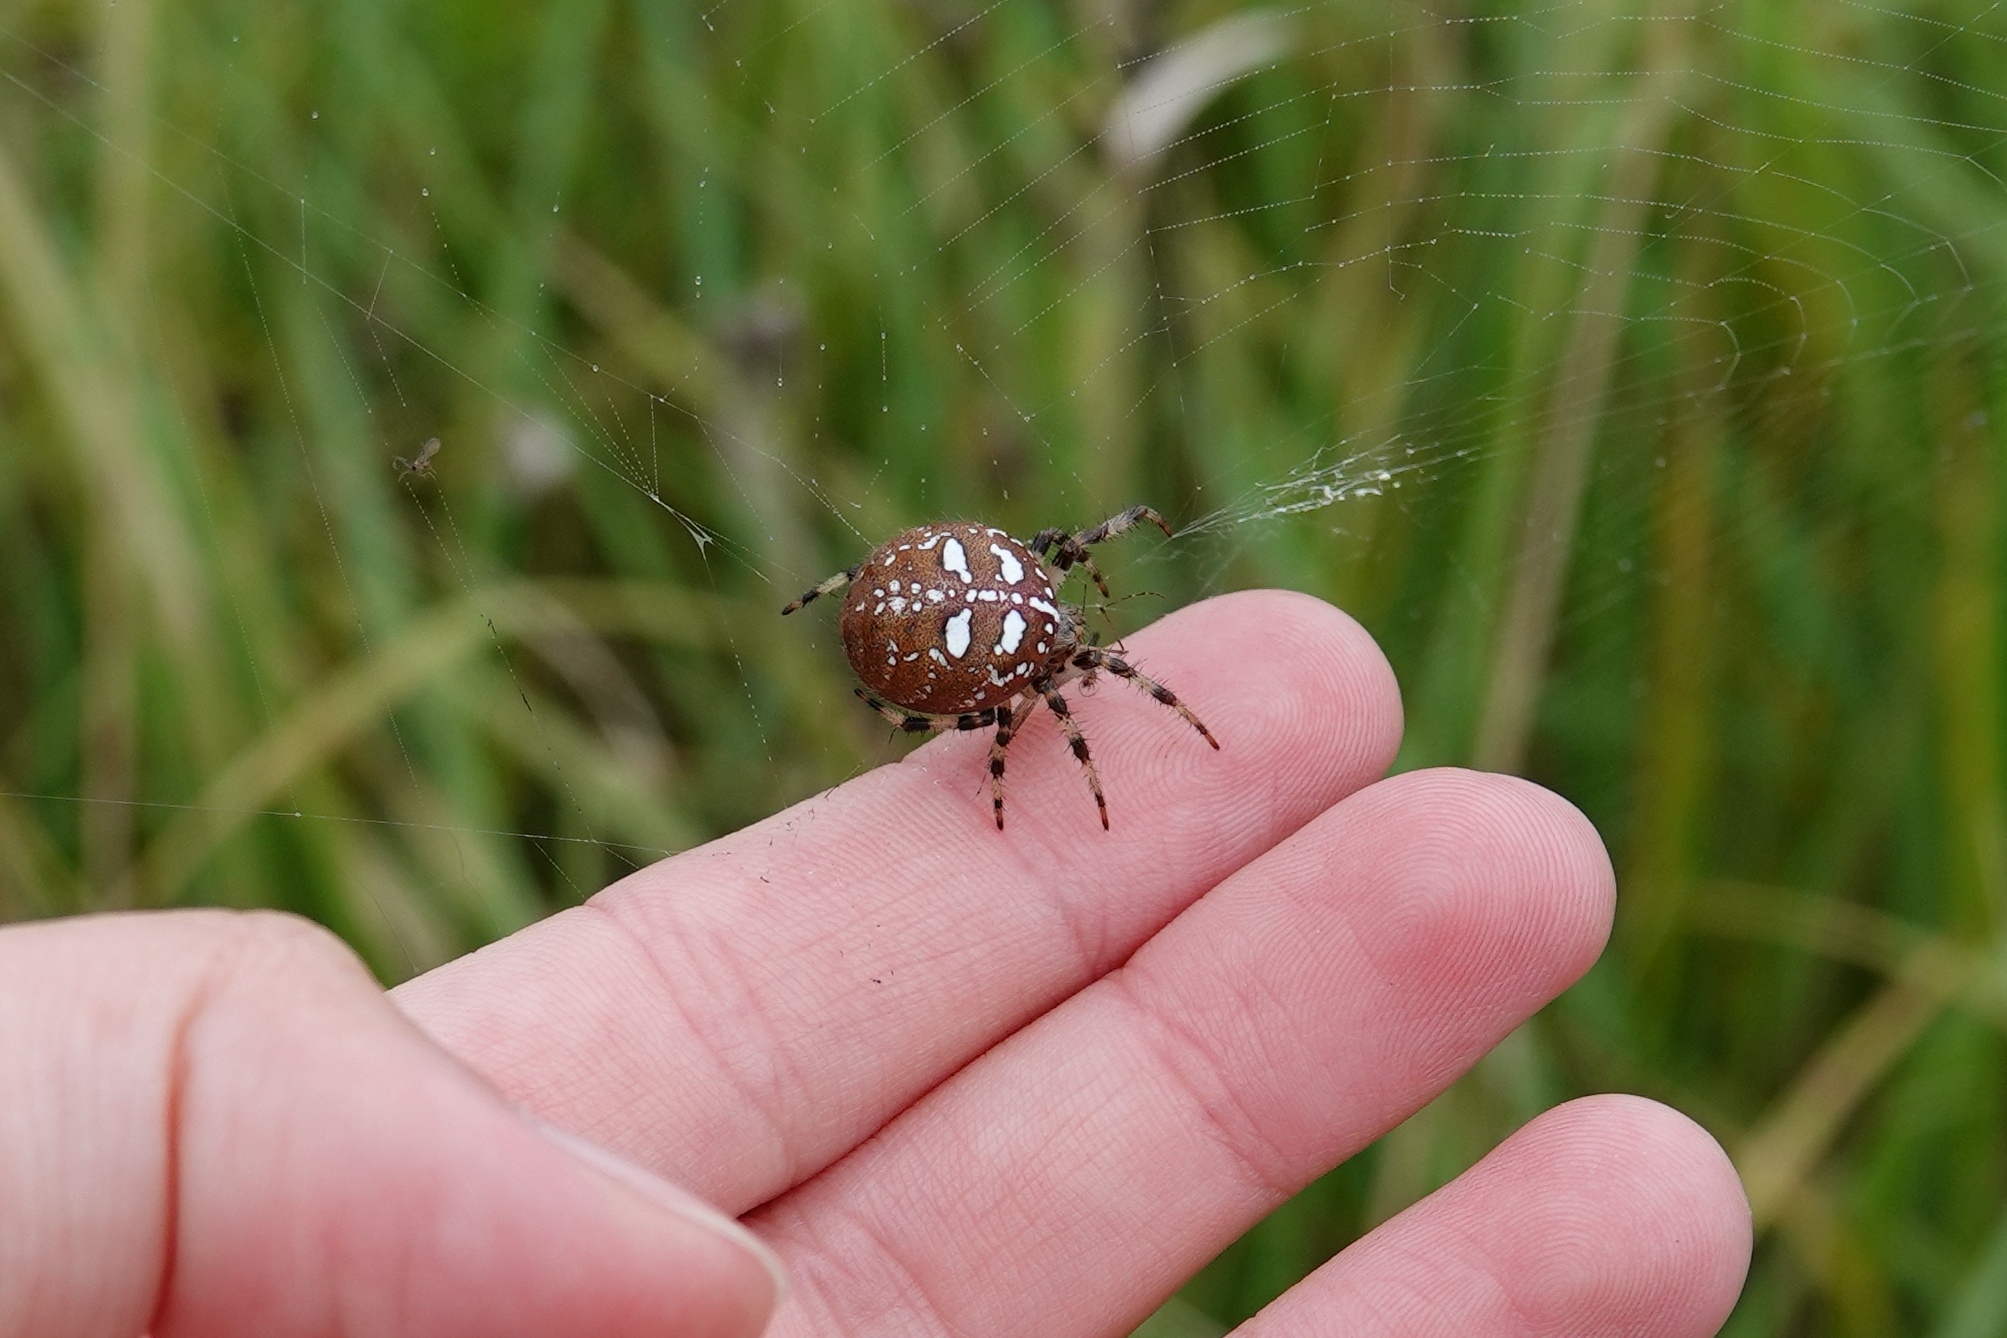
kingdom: Animalia
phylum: Arthropoda
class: Arachnida
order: Araneae
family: Araneidae
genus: Araneus
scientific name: Araneus quadratus
